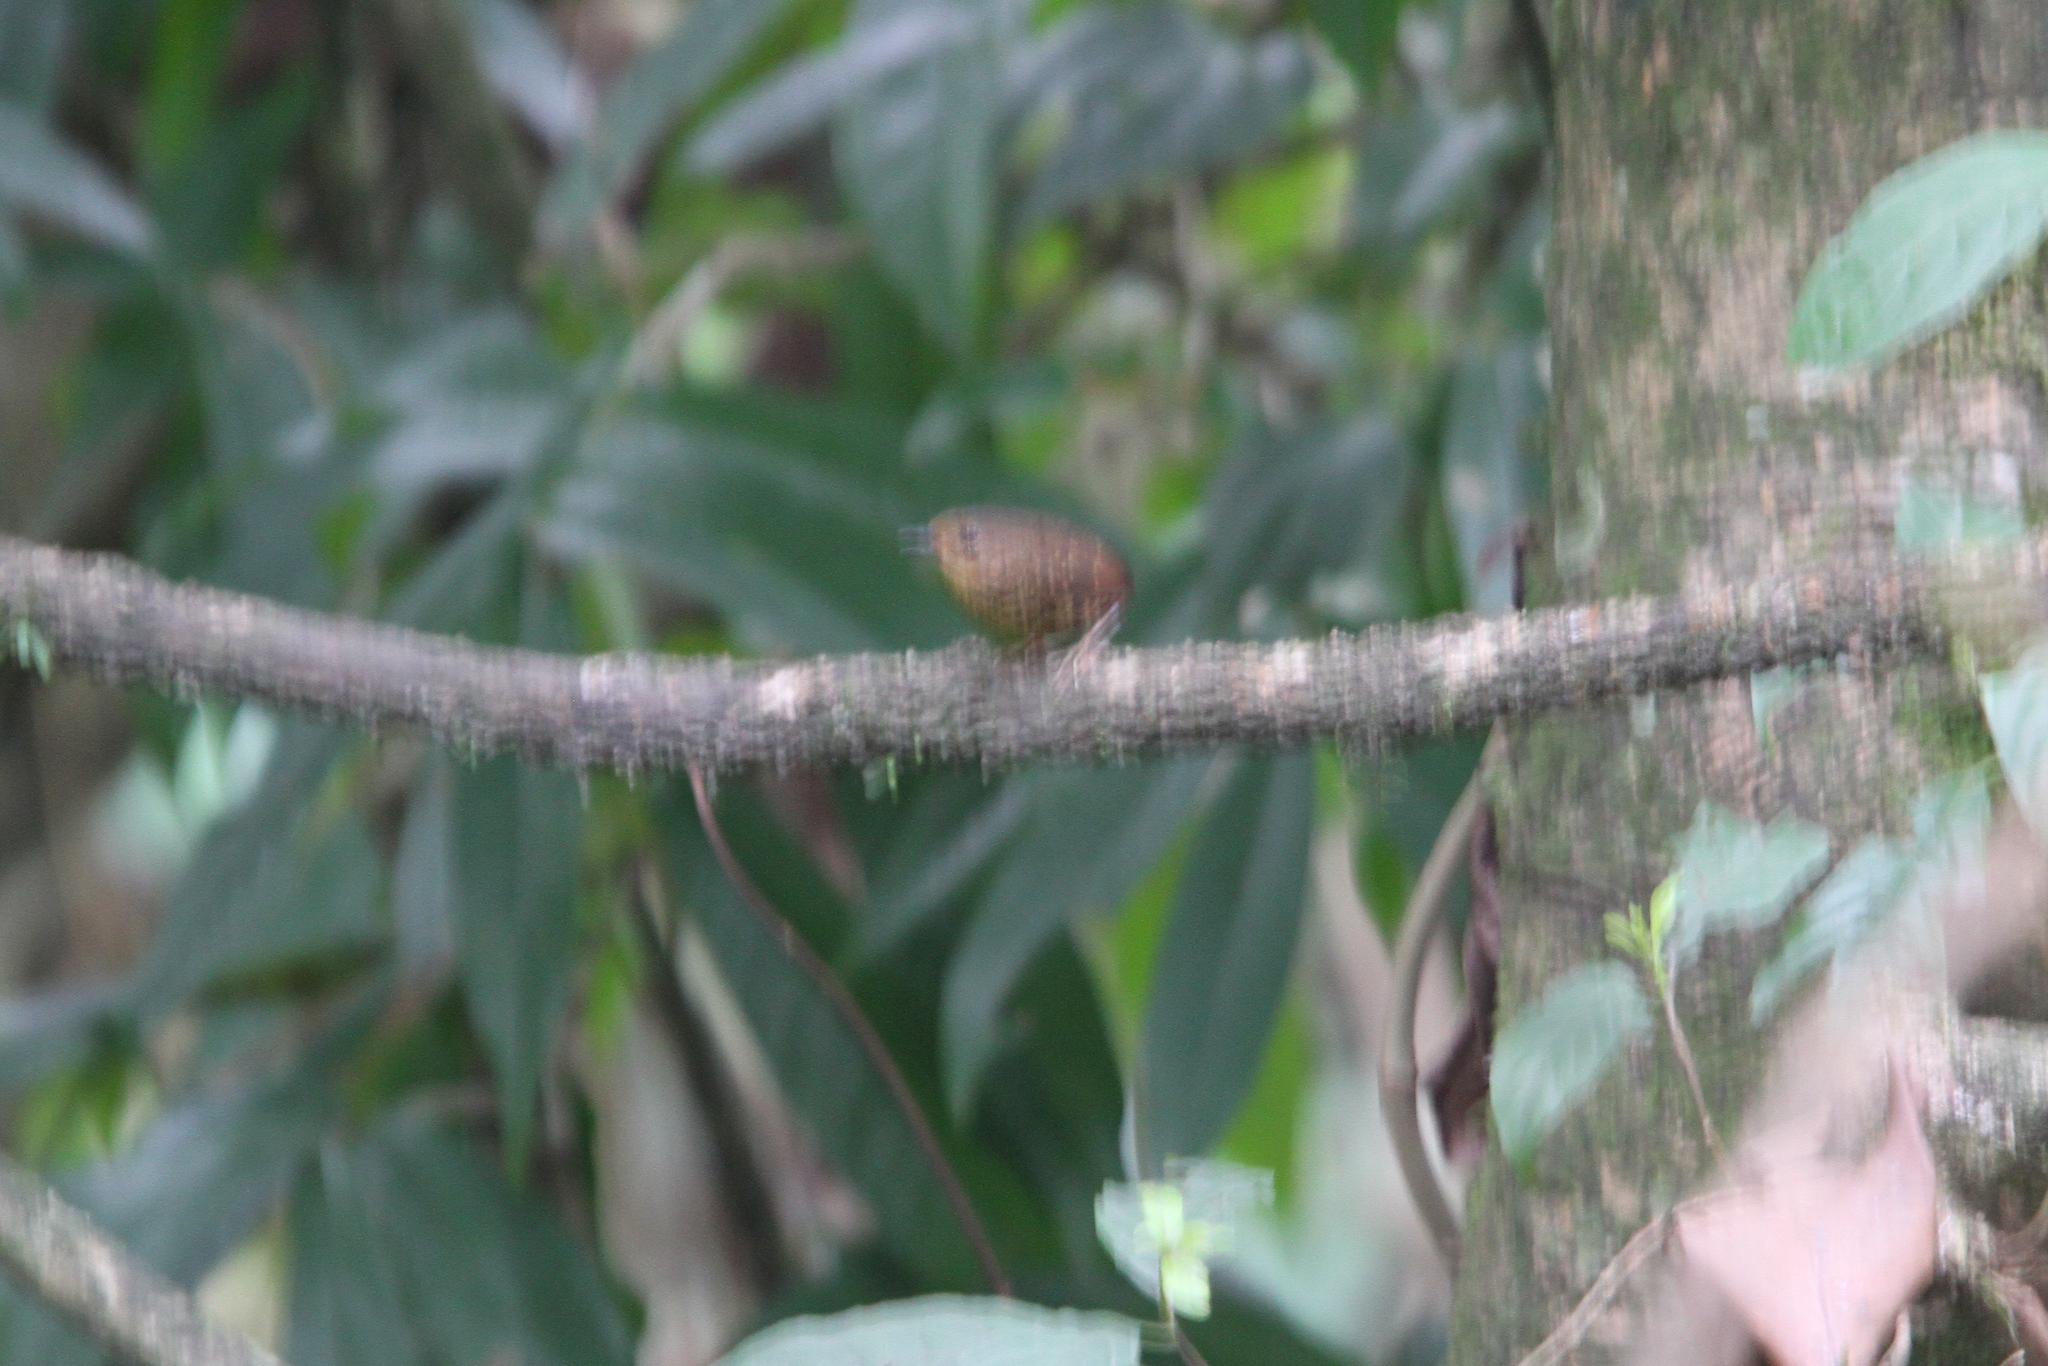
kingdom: Animalia
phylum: Chordata
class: Aves
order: Passeriformes
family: Pnoepygidae
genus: Pnoepyga
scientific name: Pnoepyga pusilla
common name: Pygmy wren-babbler
